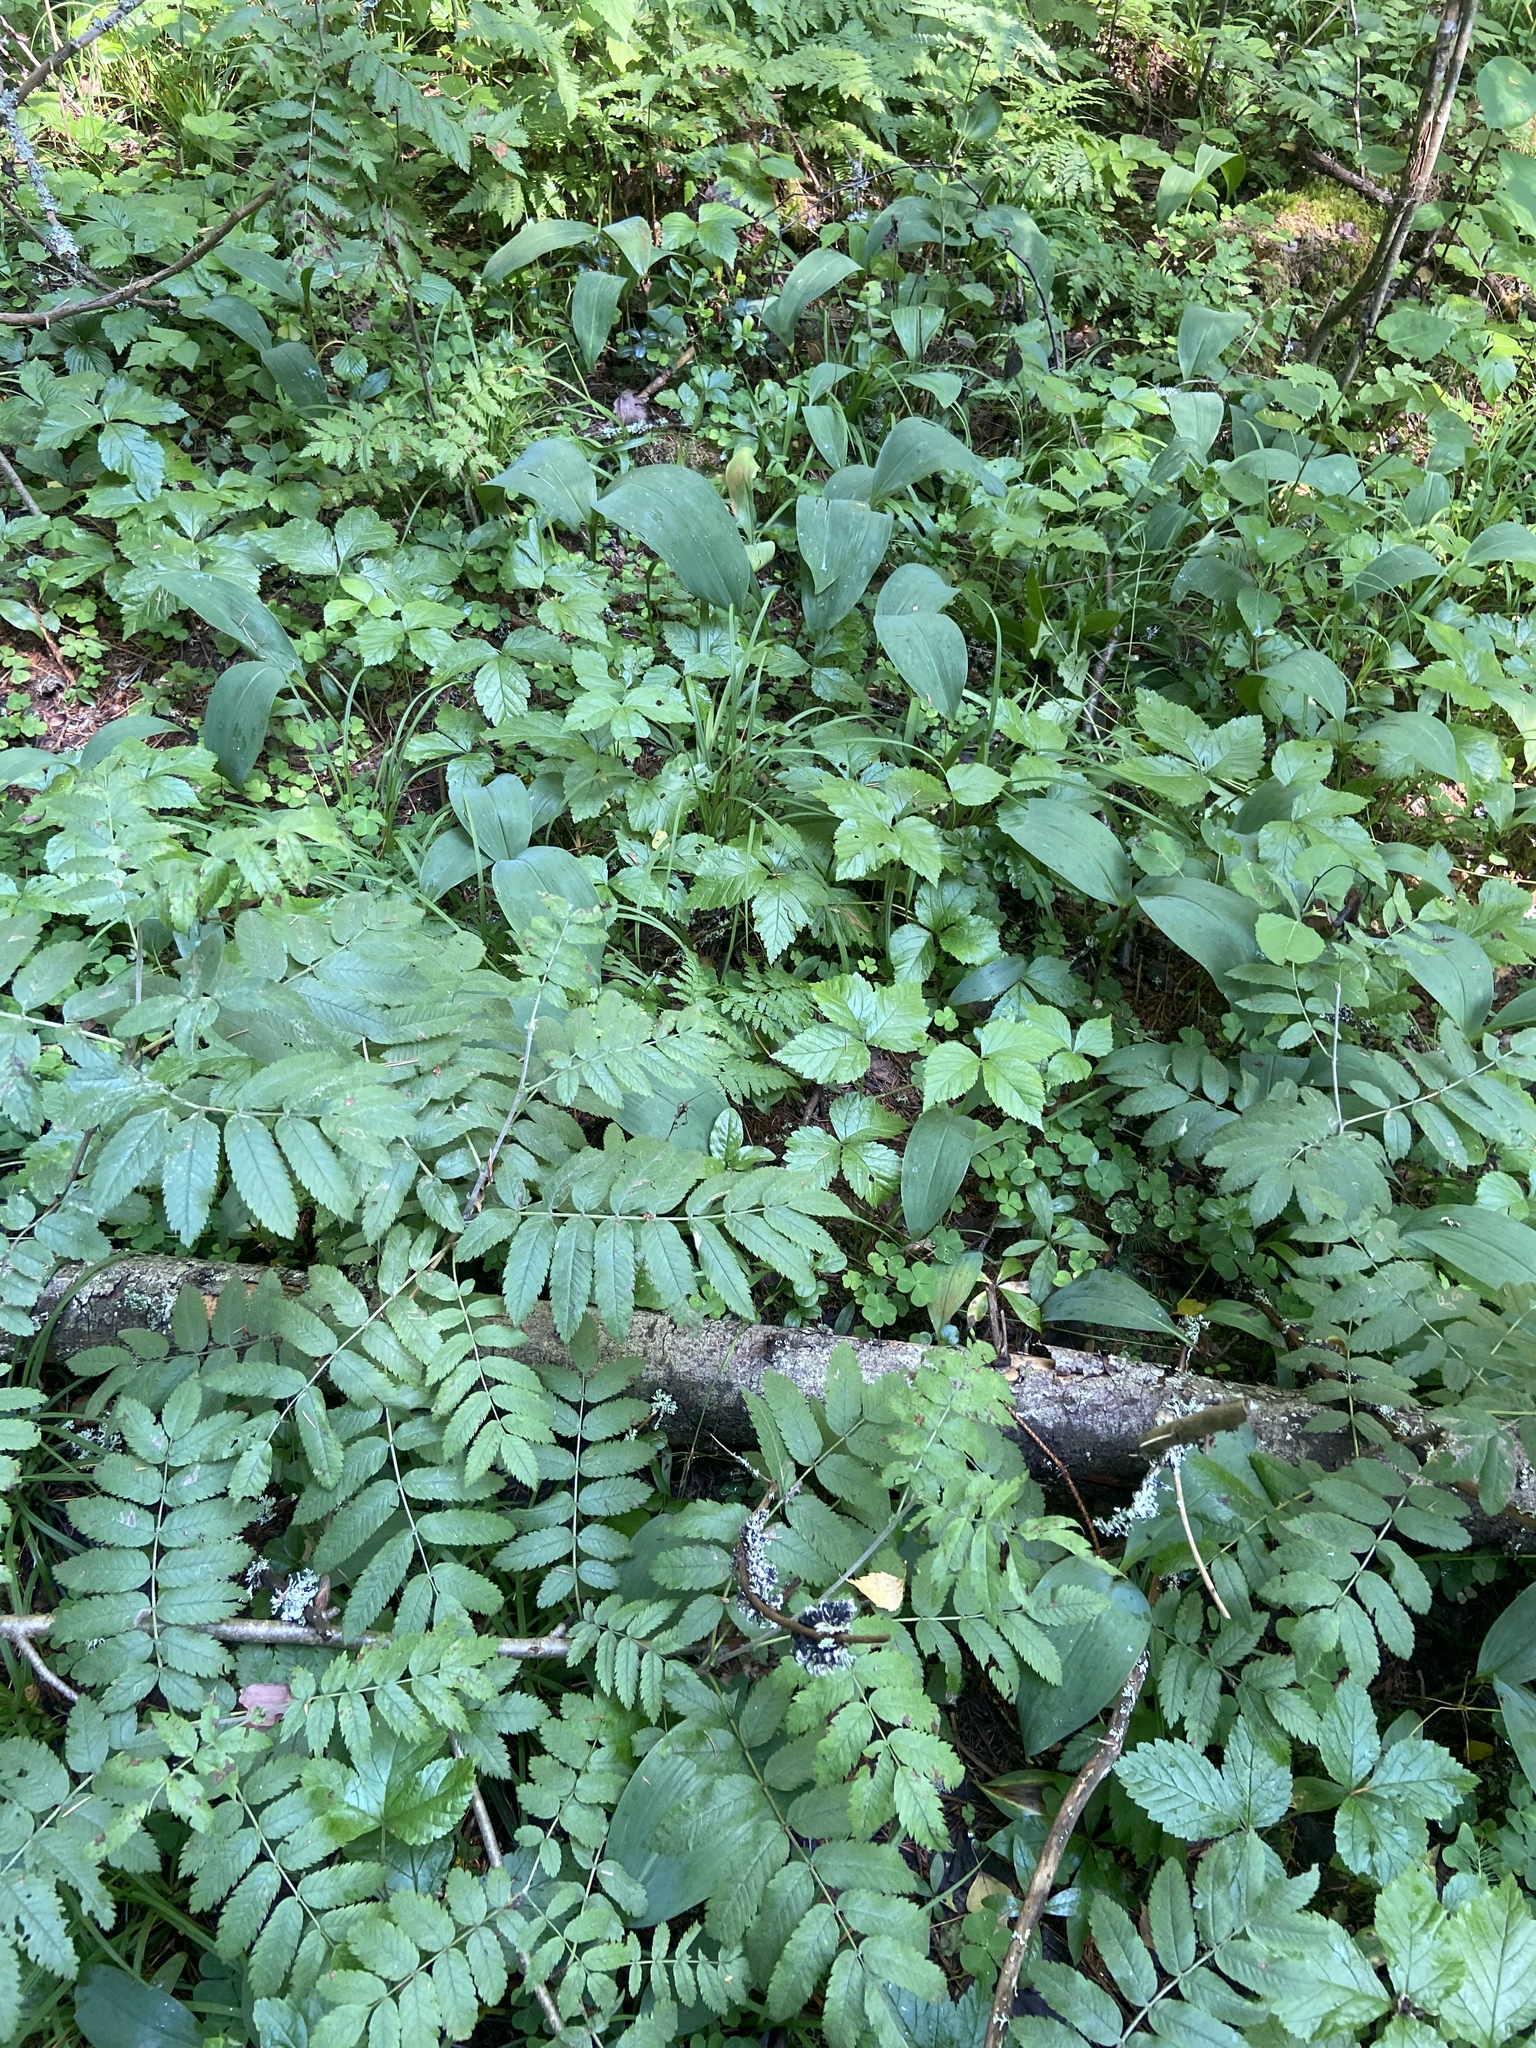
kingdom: Plantae
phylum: Tracheophyta
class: Magnoliopsida
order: Rosales
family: Rosaceae
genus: Sorbus
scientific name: Sorbus aucuparia
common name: Rowan
